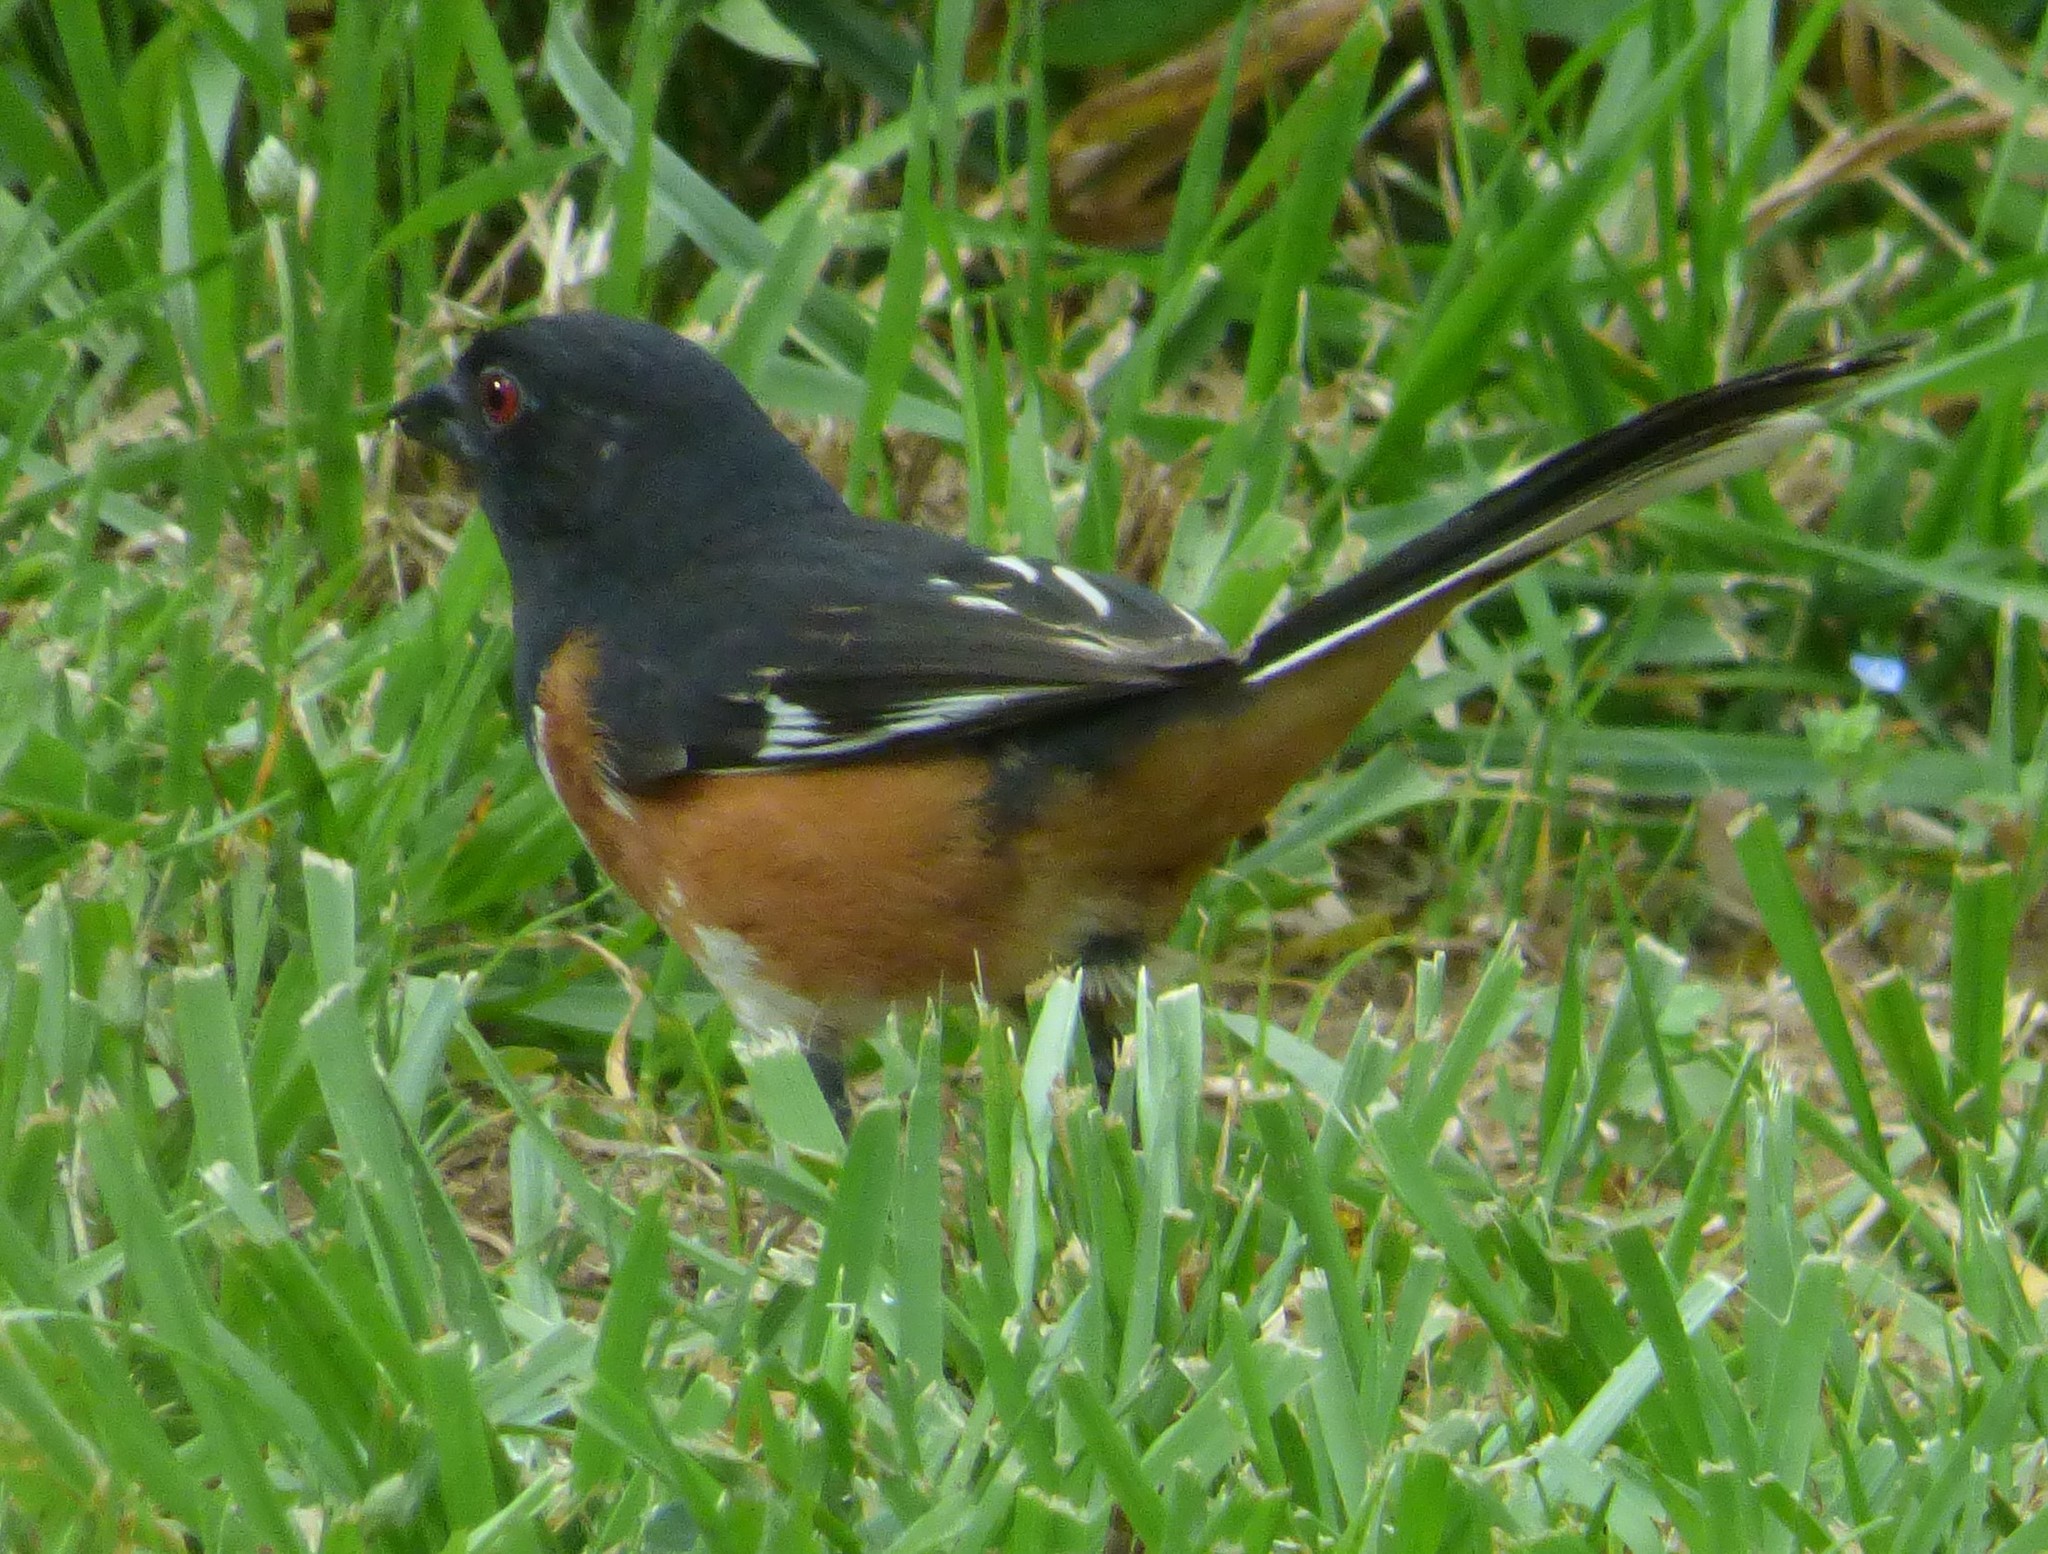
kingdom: Animalia
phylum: Chordata
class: Aves
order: Passeriformes
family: Passerellidae
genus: Pipilo
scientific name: Pipilo erythrophthalmus
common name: Eastern towhee
